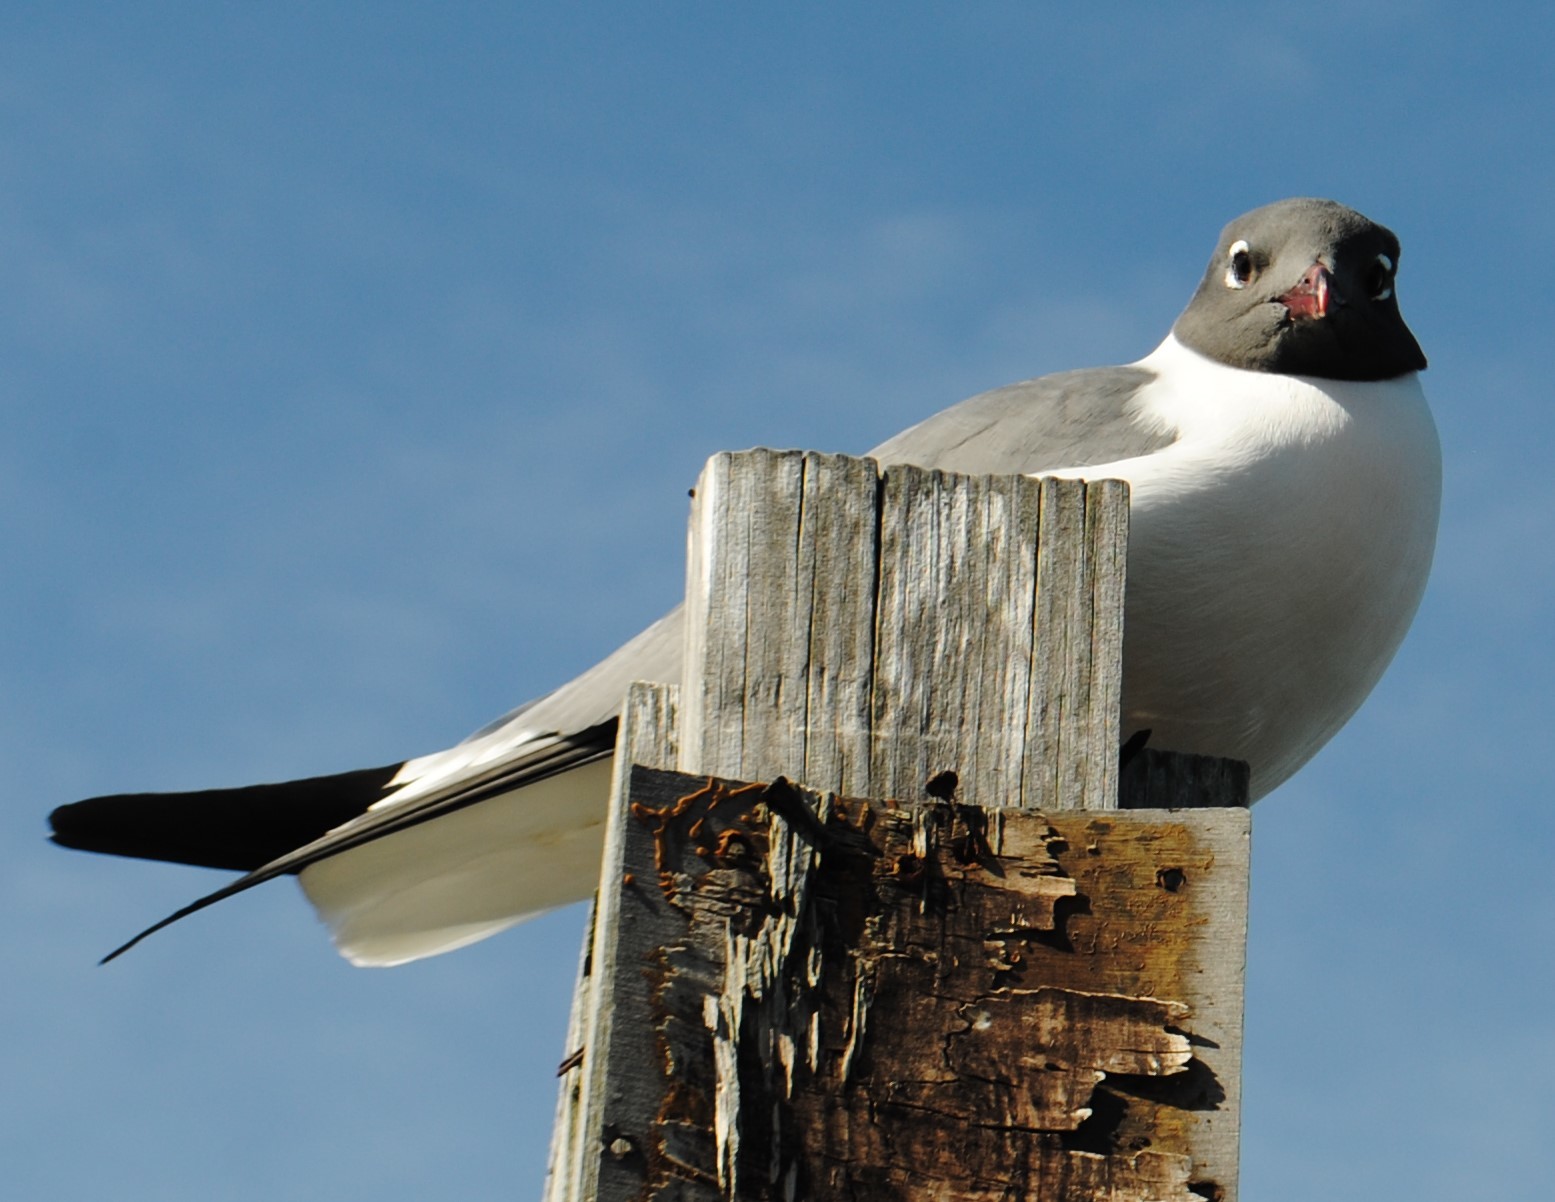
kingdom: Animalia
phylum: Chordata
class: Aves
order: Charadriiformes
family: Laridae
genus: Leucophaeus
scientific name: Leucophaeus atricilla
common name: Laughing gull
